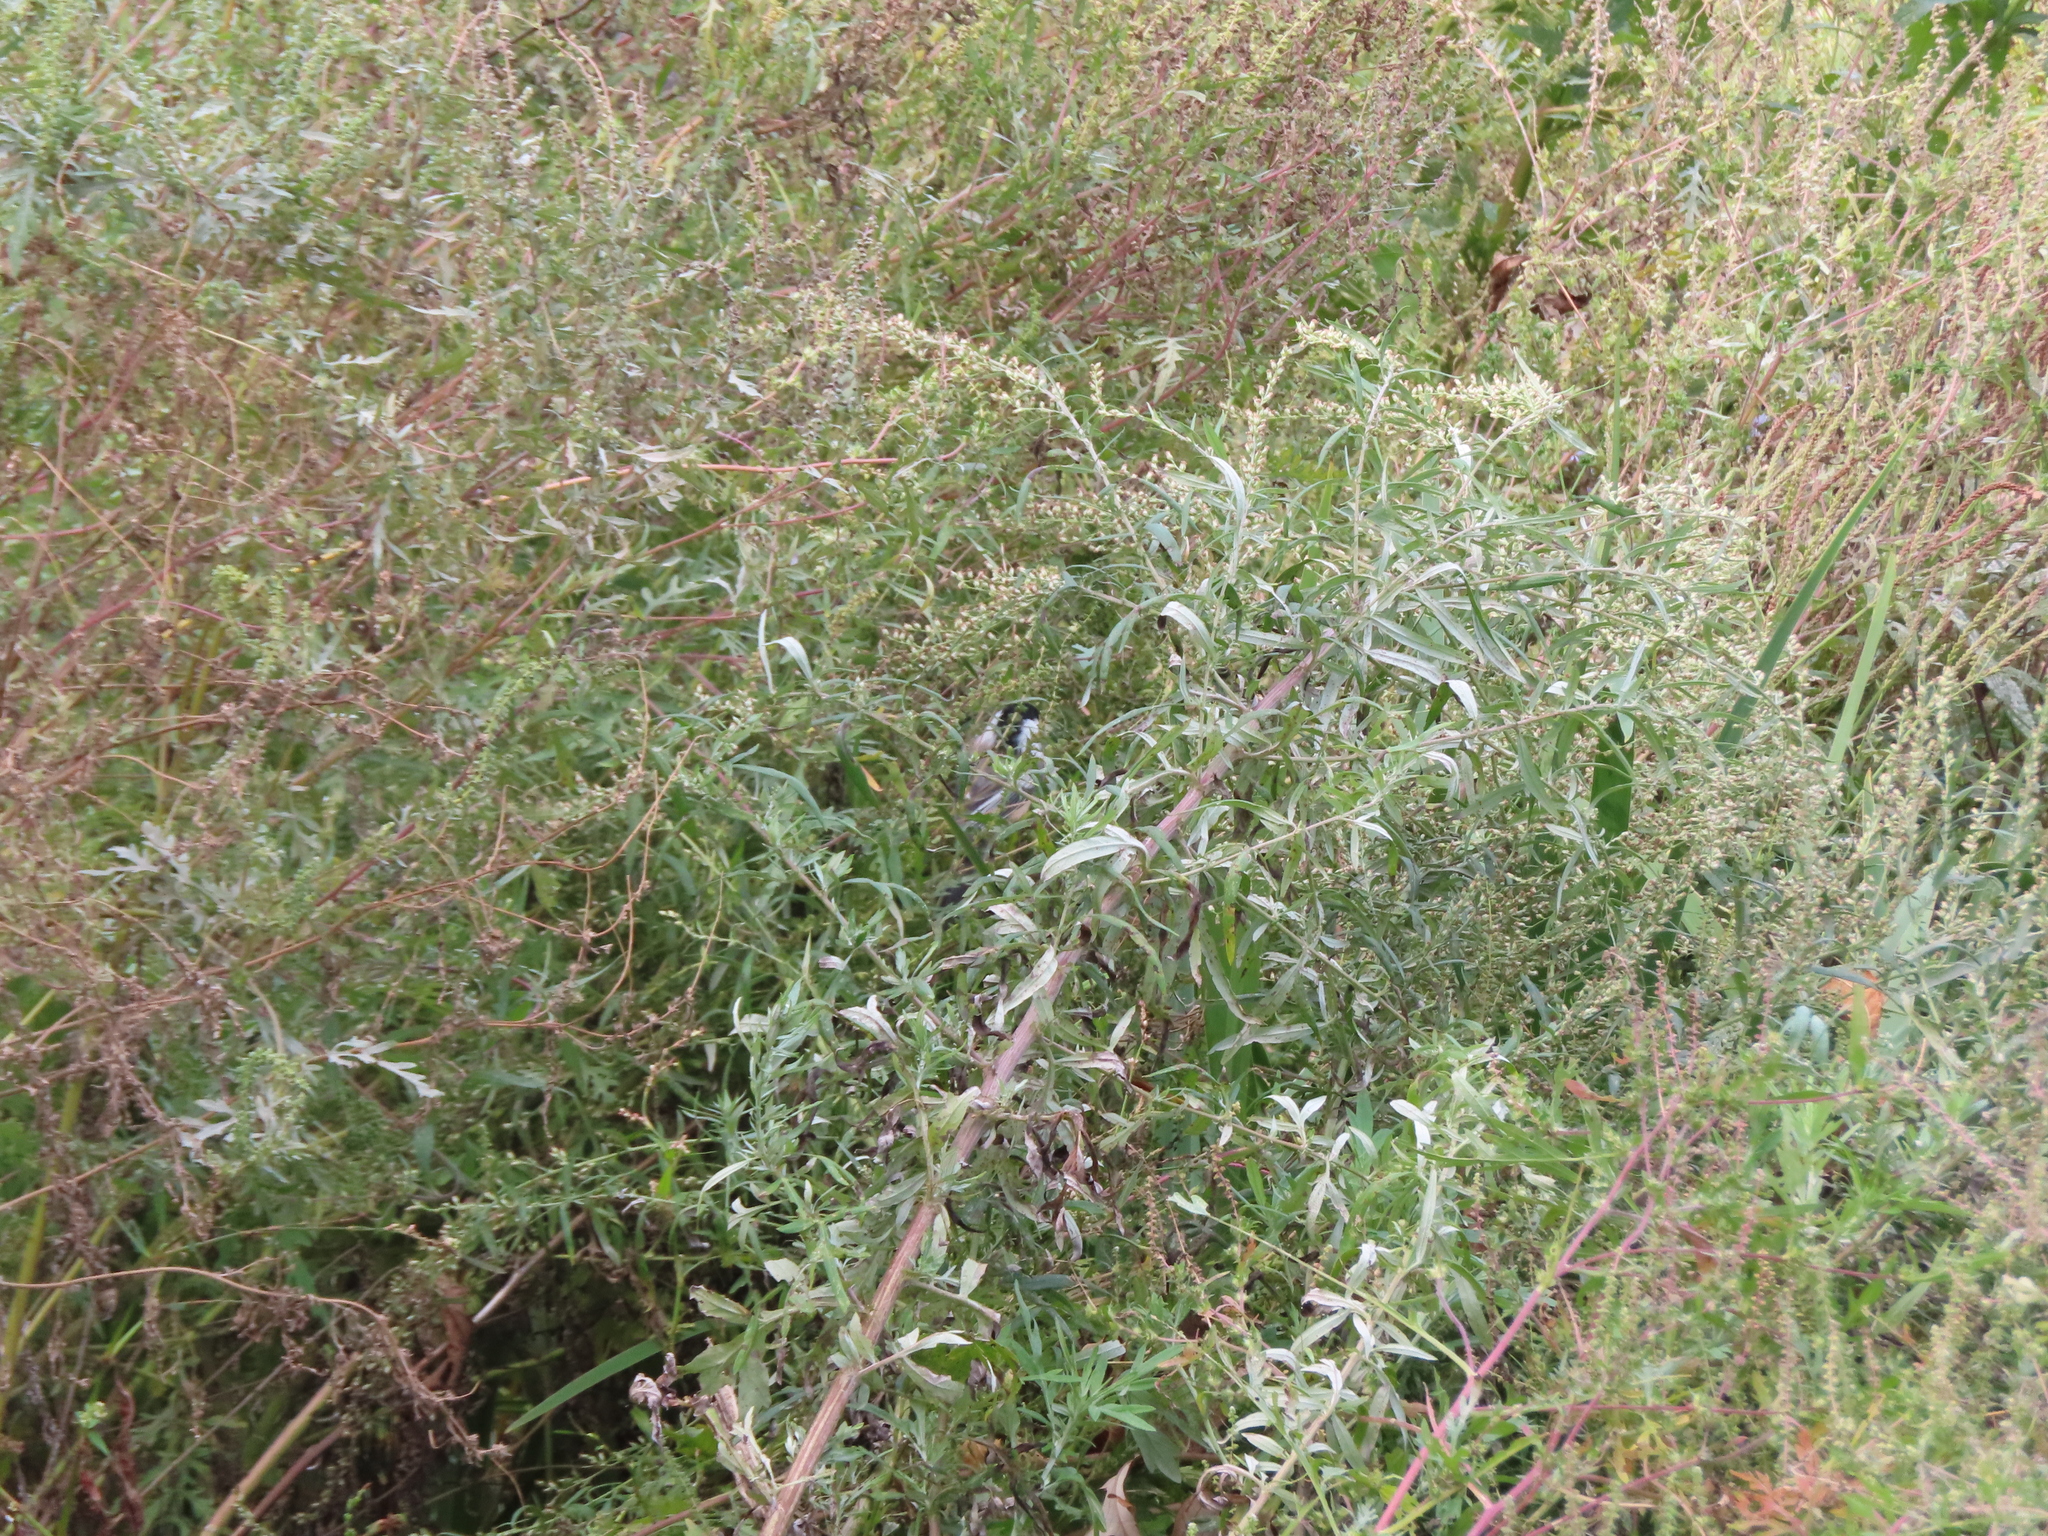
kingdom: Animalia
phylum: Chordata
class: Aves
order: Passeriformes
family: Paridae
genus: Poecile
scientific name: Poecile atricapillus
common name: Black-capped chickadee
